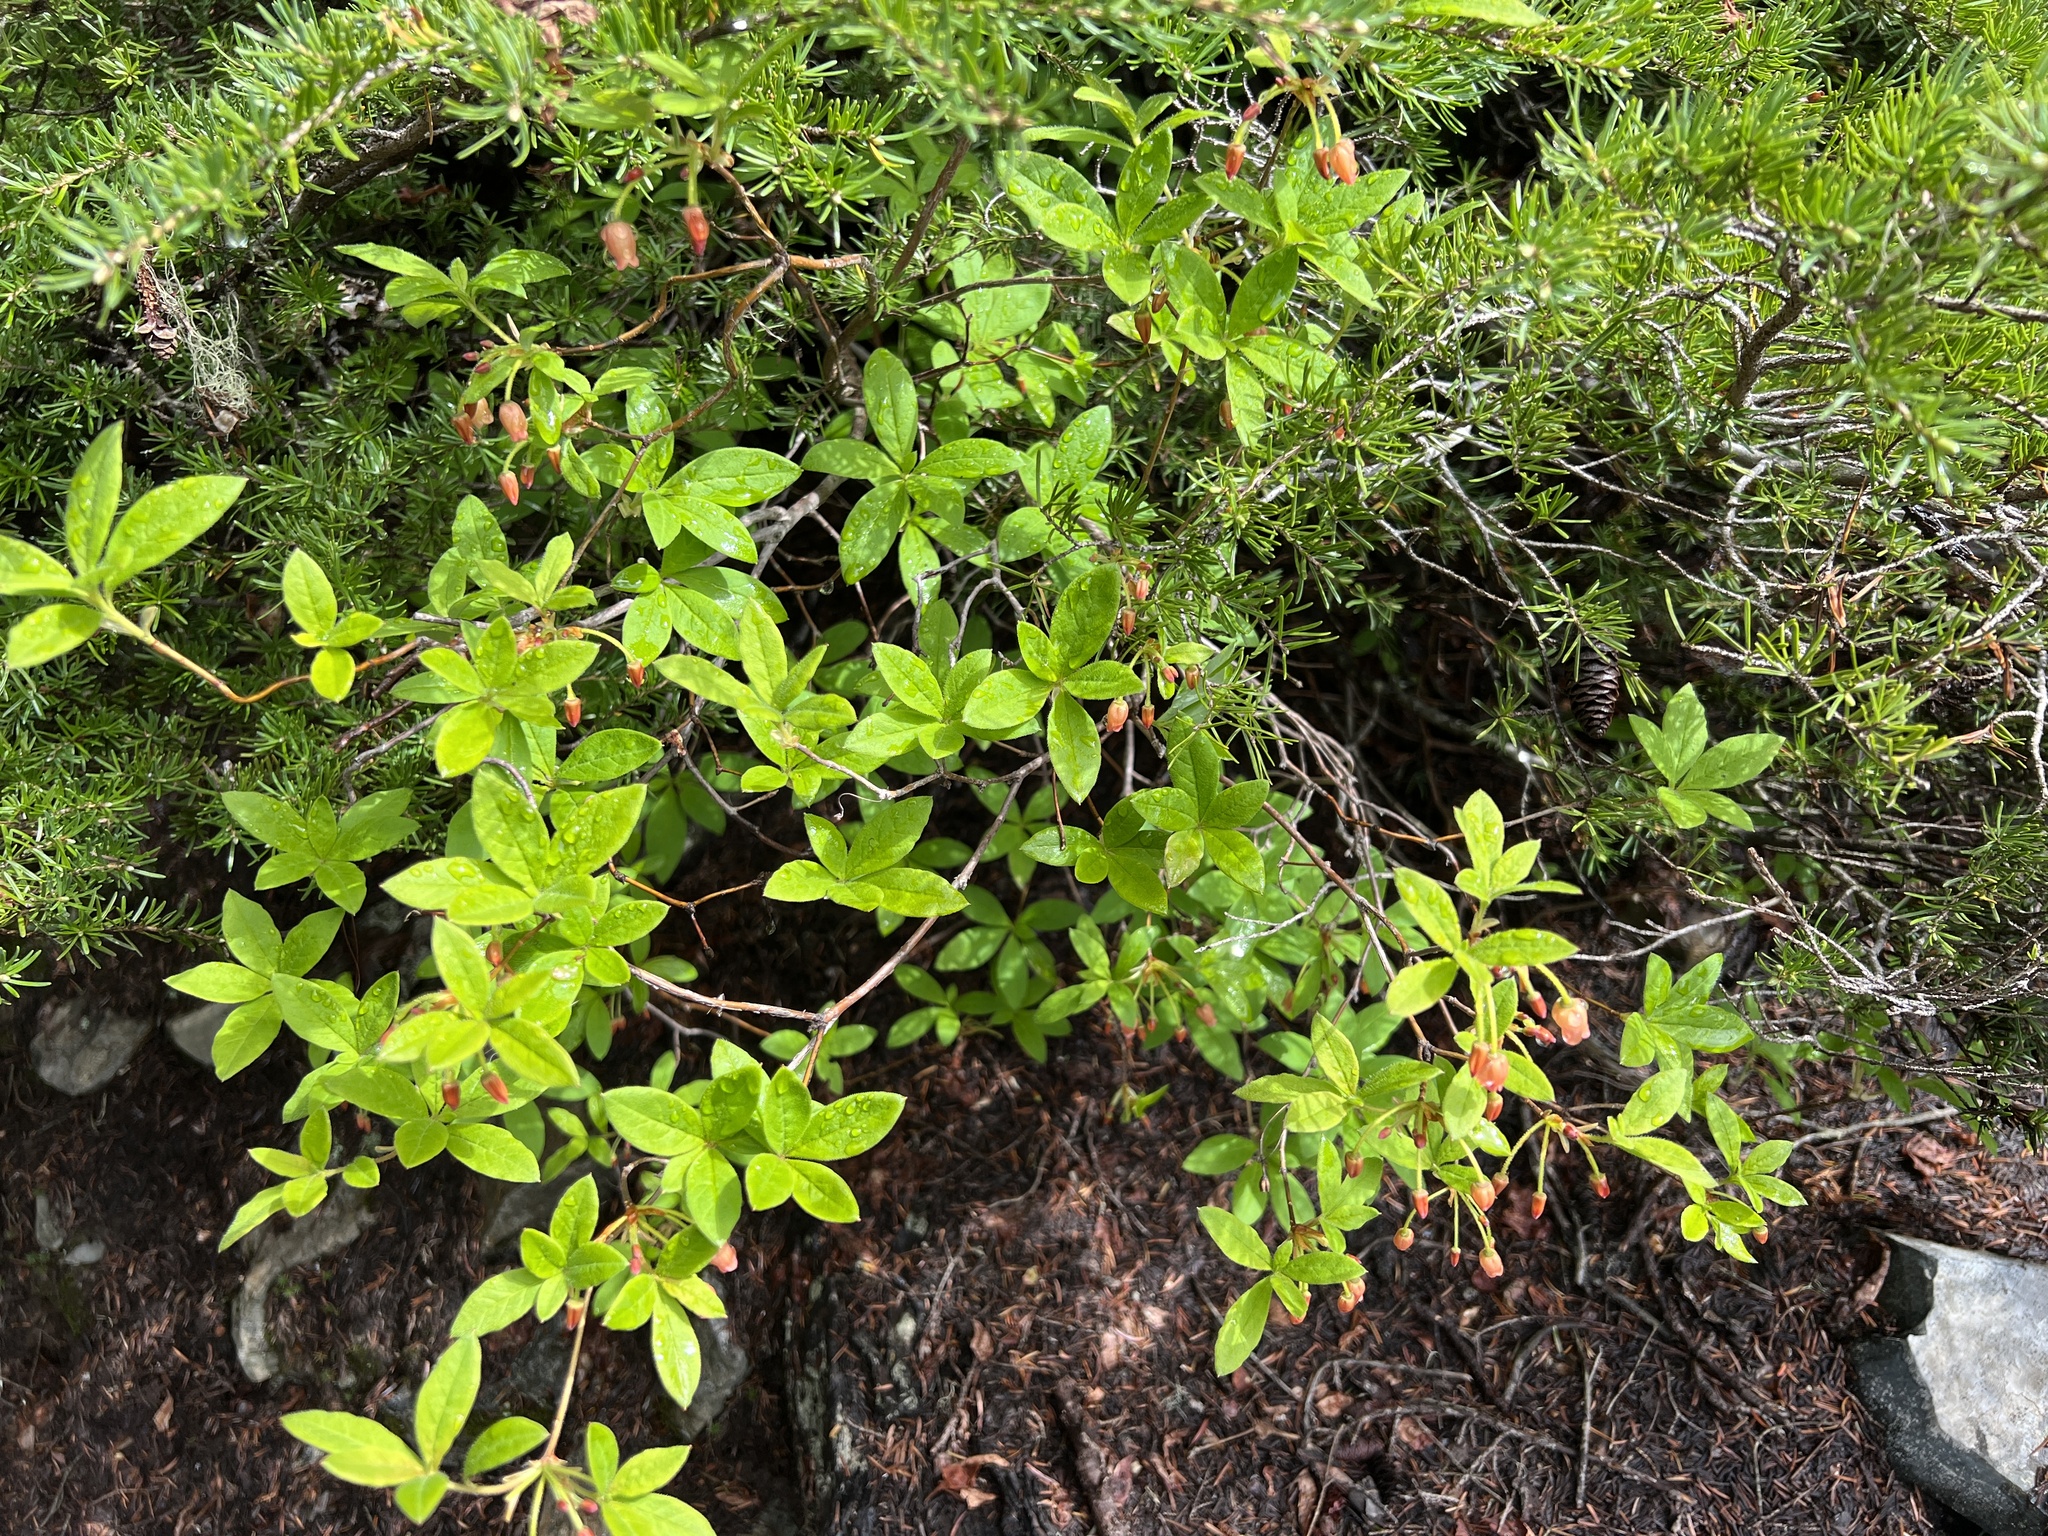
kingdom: Plantae
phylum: Tracheophyta
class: Magnoliopsida
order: Ericales
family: Ericaceae
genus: Rhododendron
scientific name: Rhododendron menziesii
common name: Pacific menziesia
